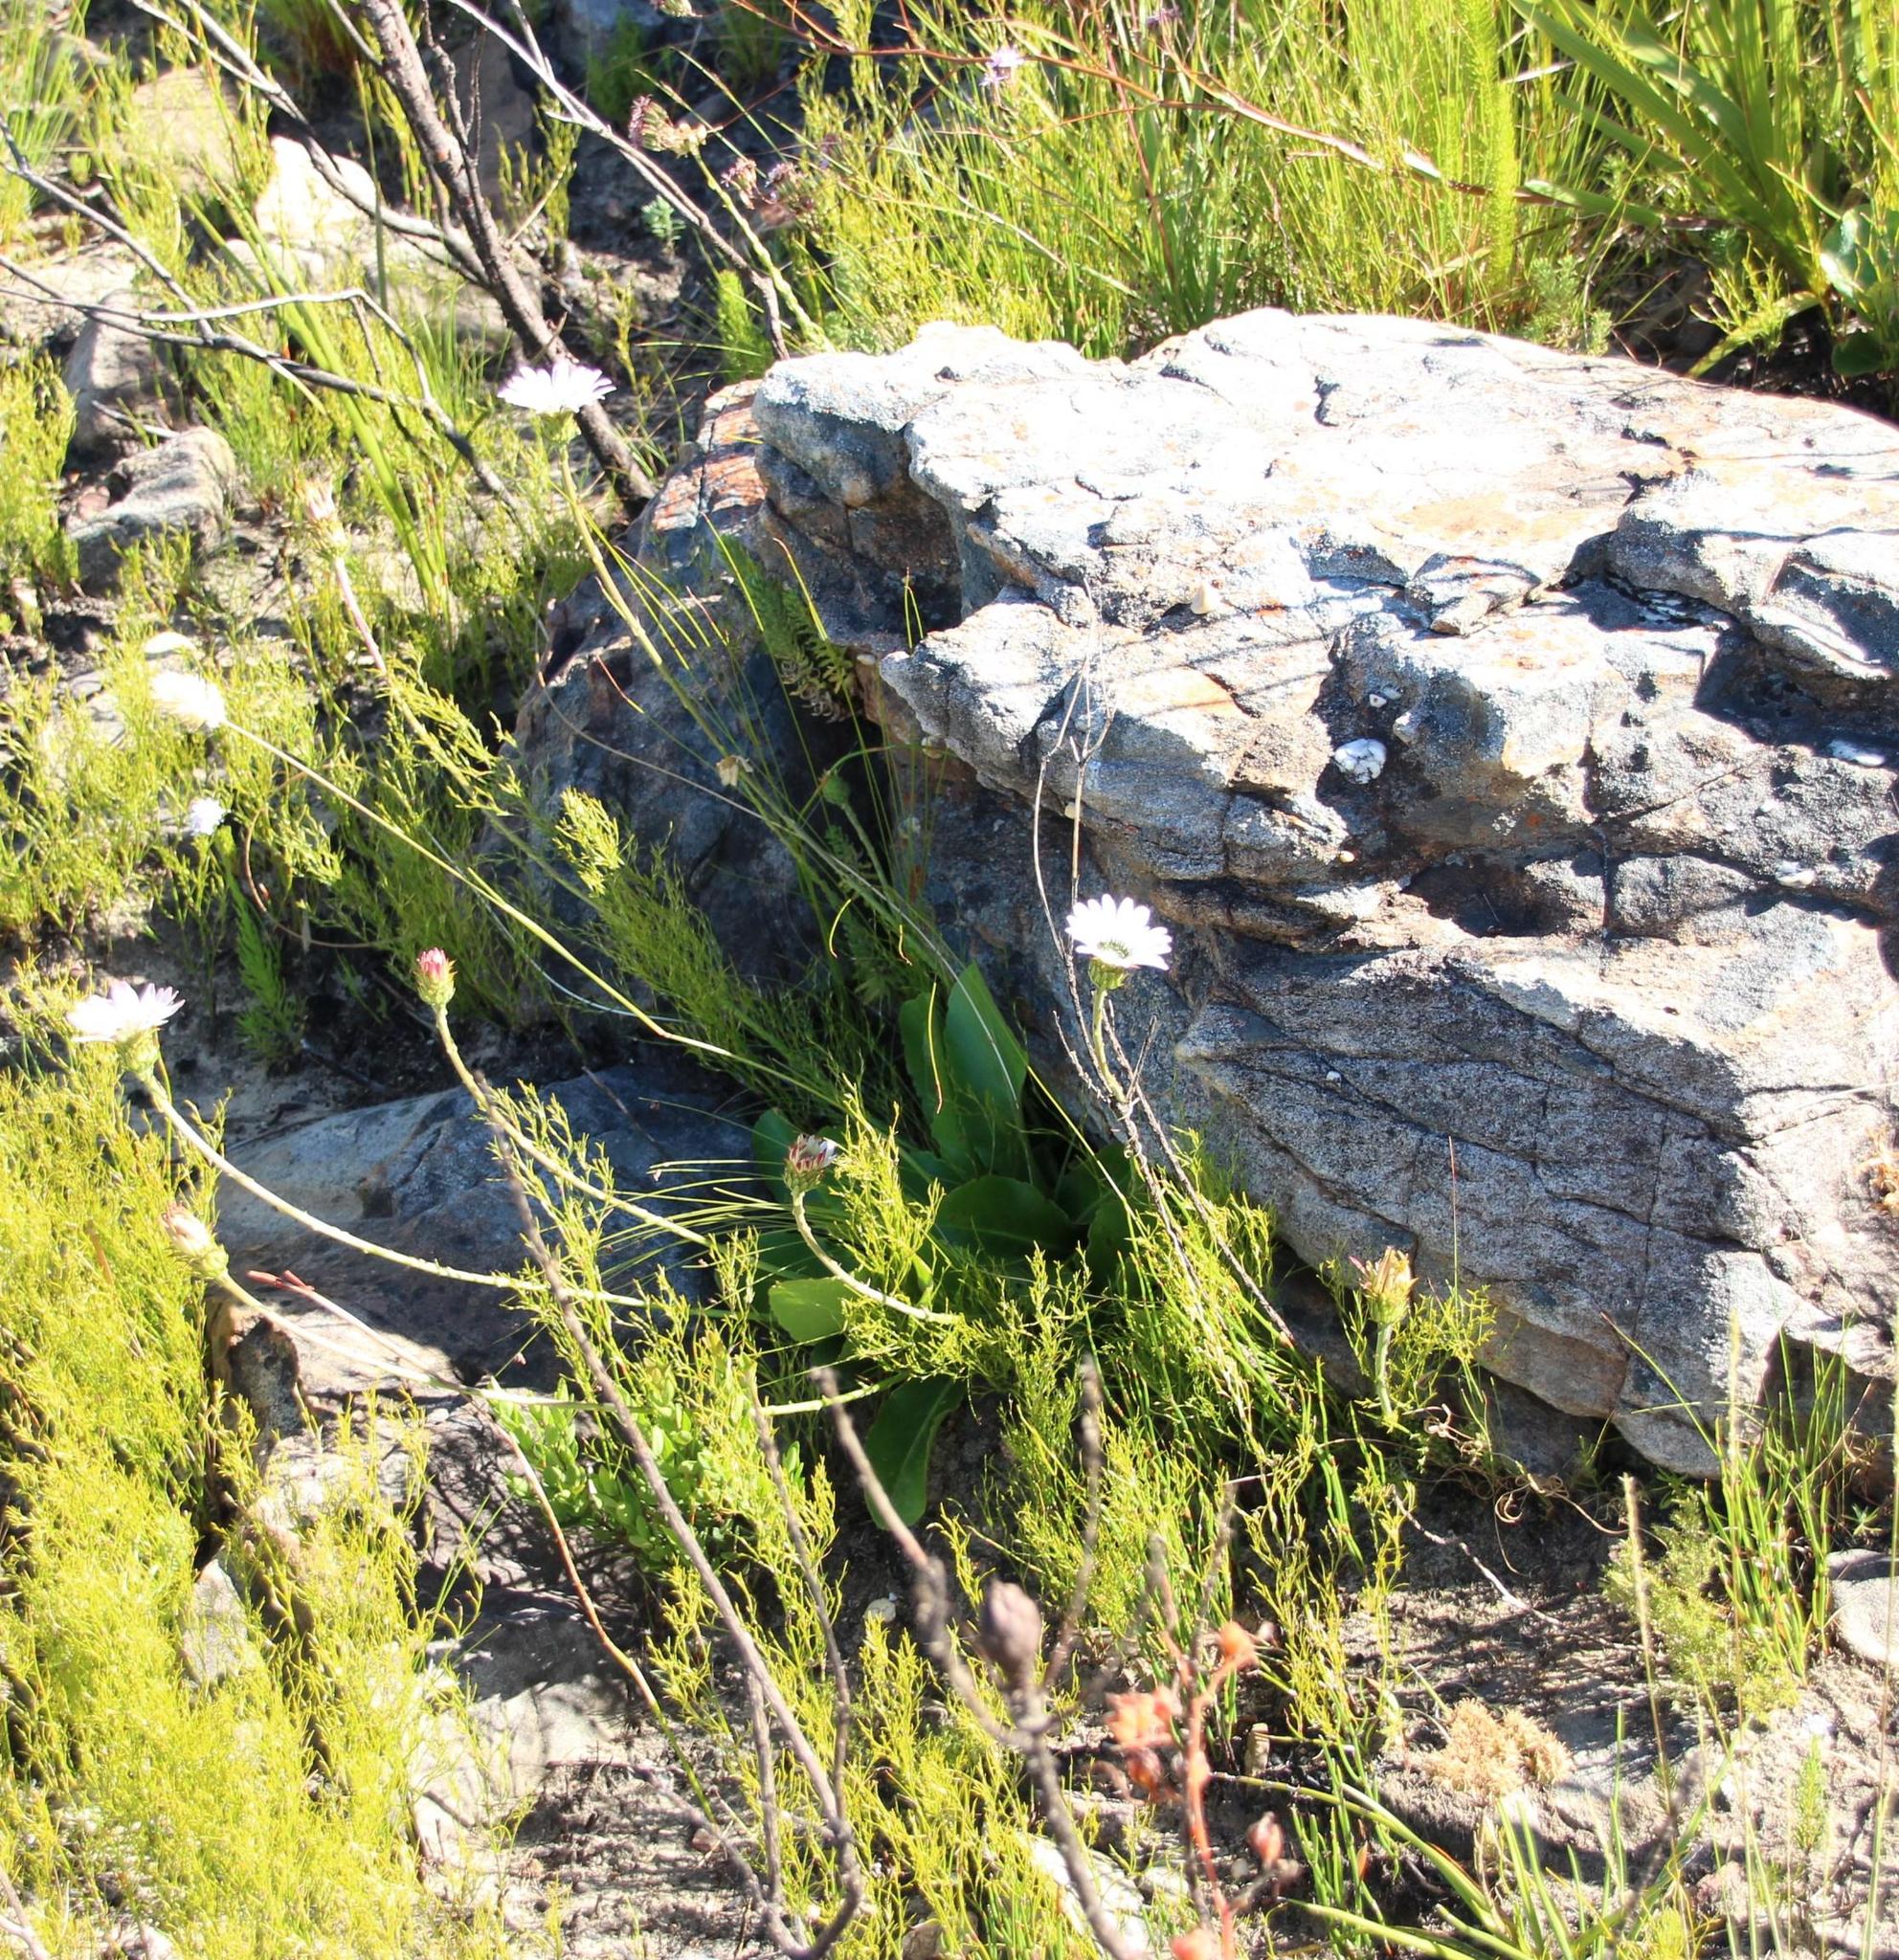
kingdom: Plantae
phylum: Tracheophyta
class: Magnoliopsida
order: Asterales
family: Asteraceae
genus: Gerbera
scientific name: Gerbera crocea
